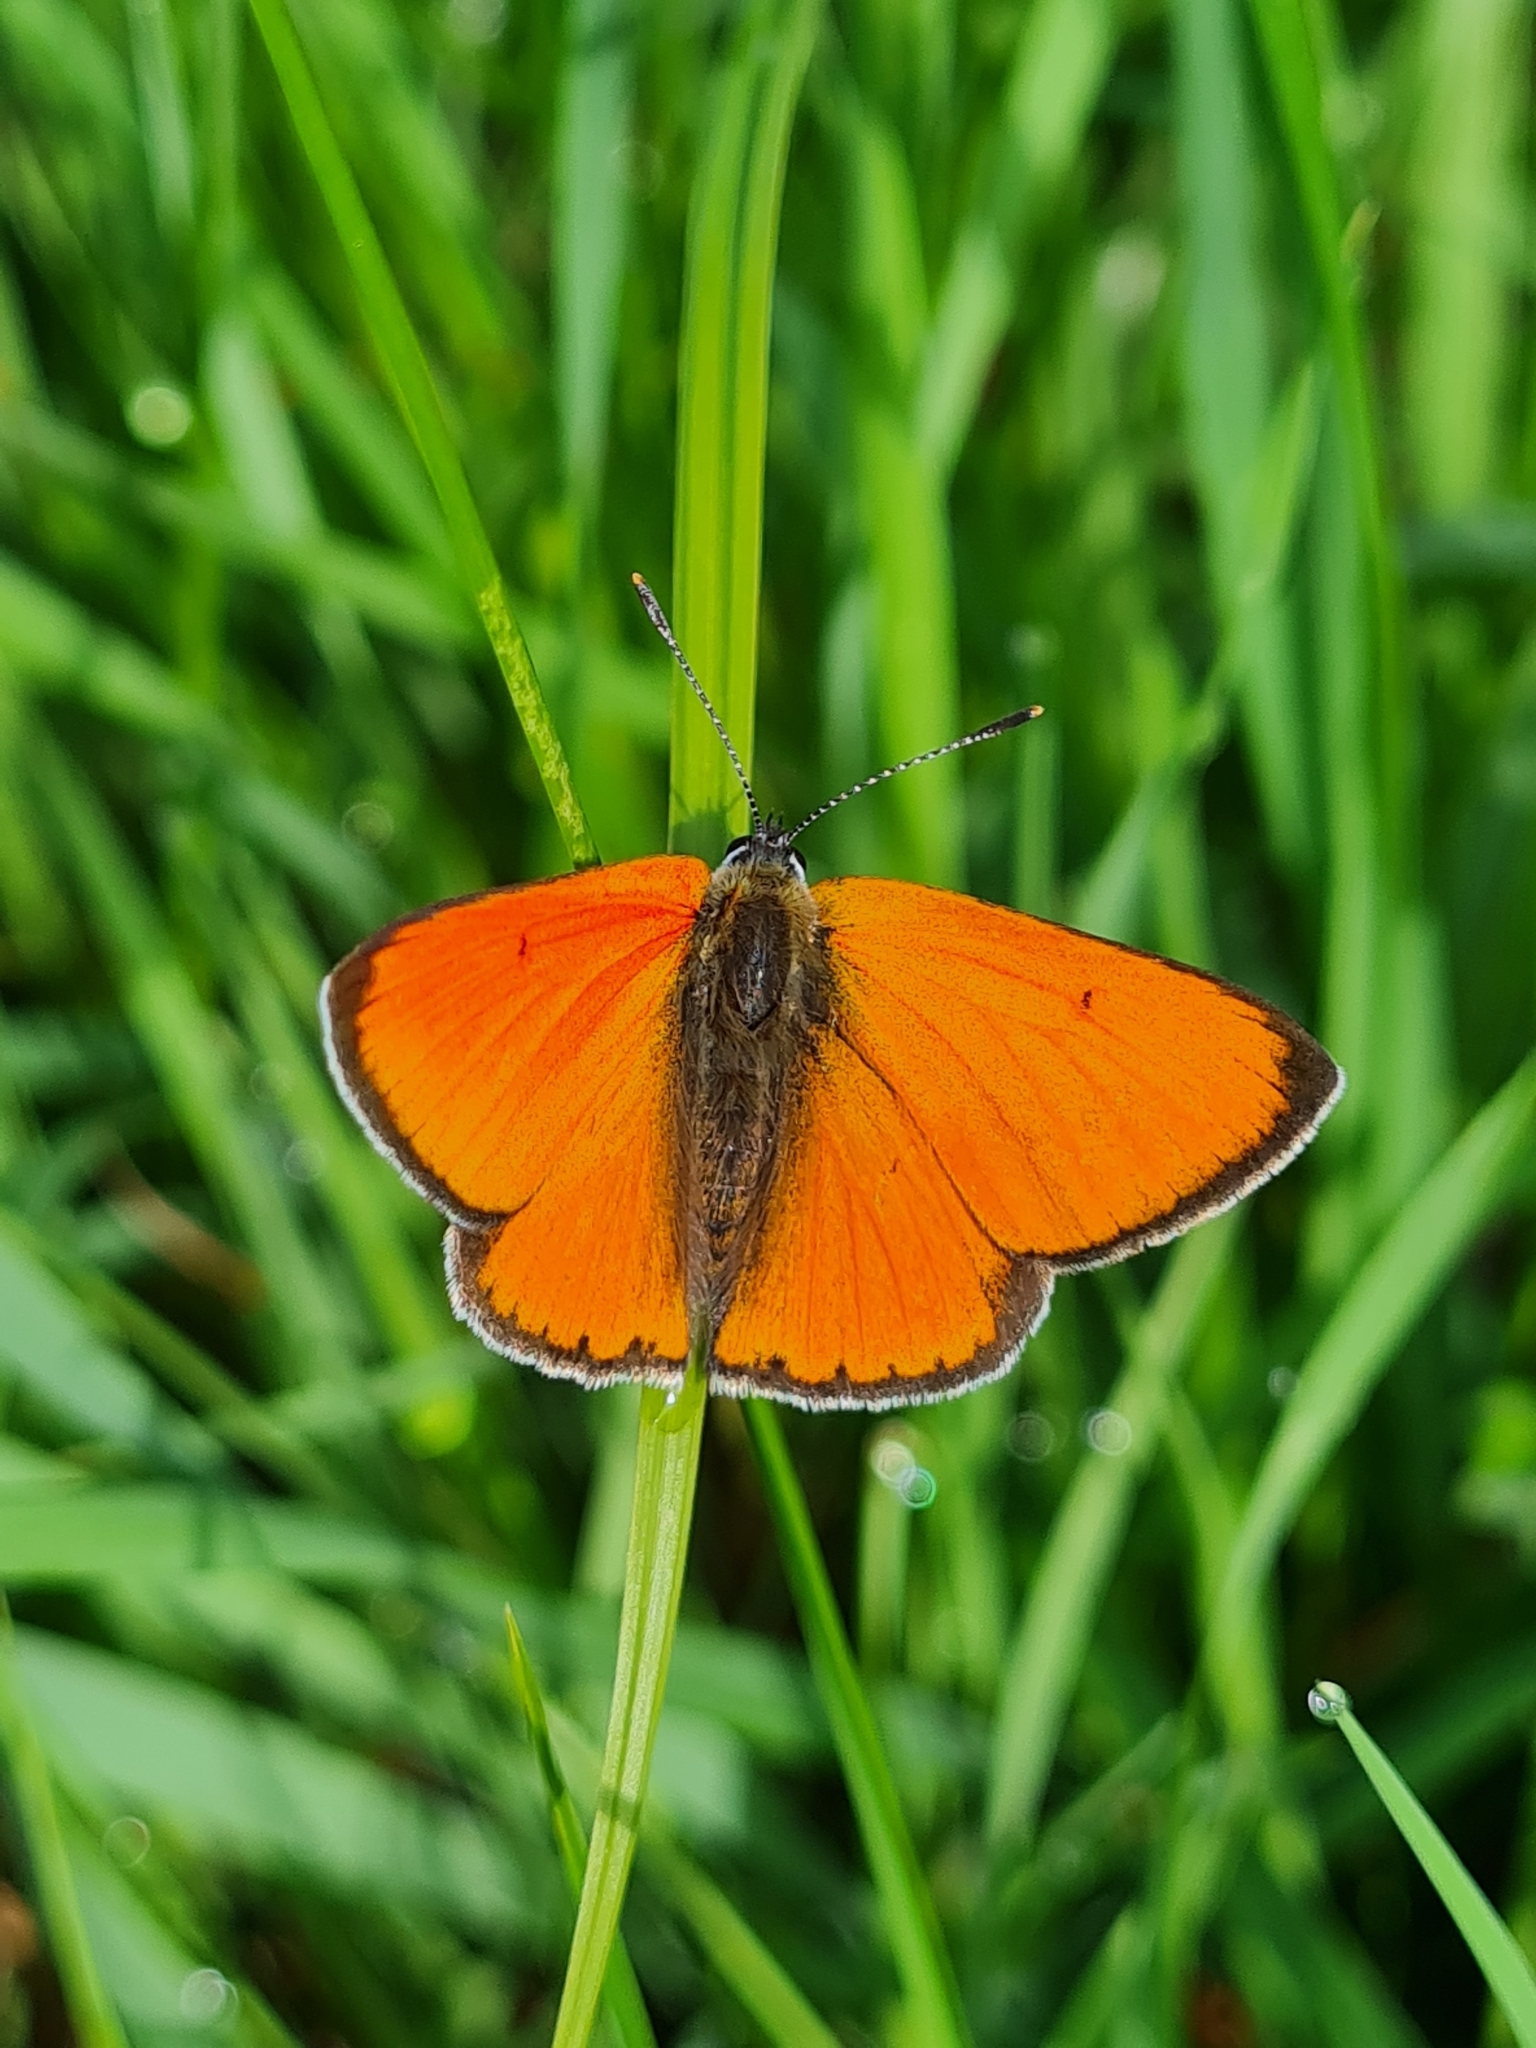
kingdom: Animalia
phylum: Arthropoda
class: Insecta
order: Lepidoptera
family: Lycaenidae
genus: Lycaena
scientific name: Lycaena dispar
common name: Large copper
